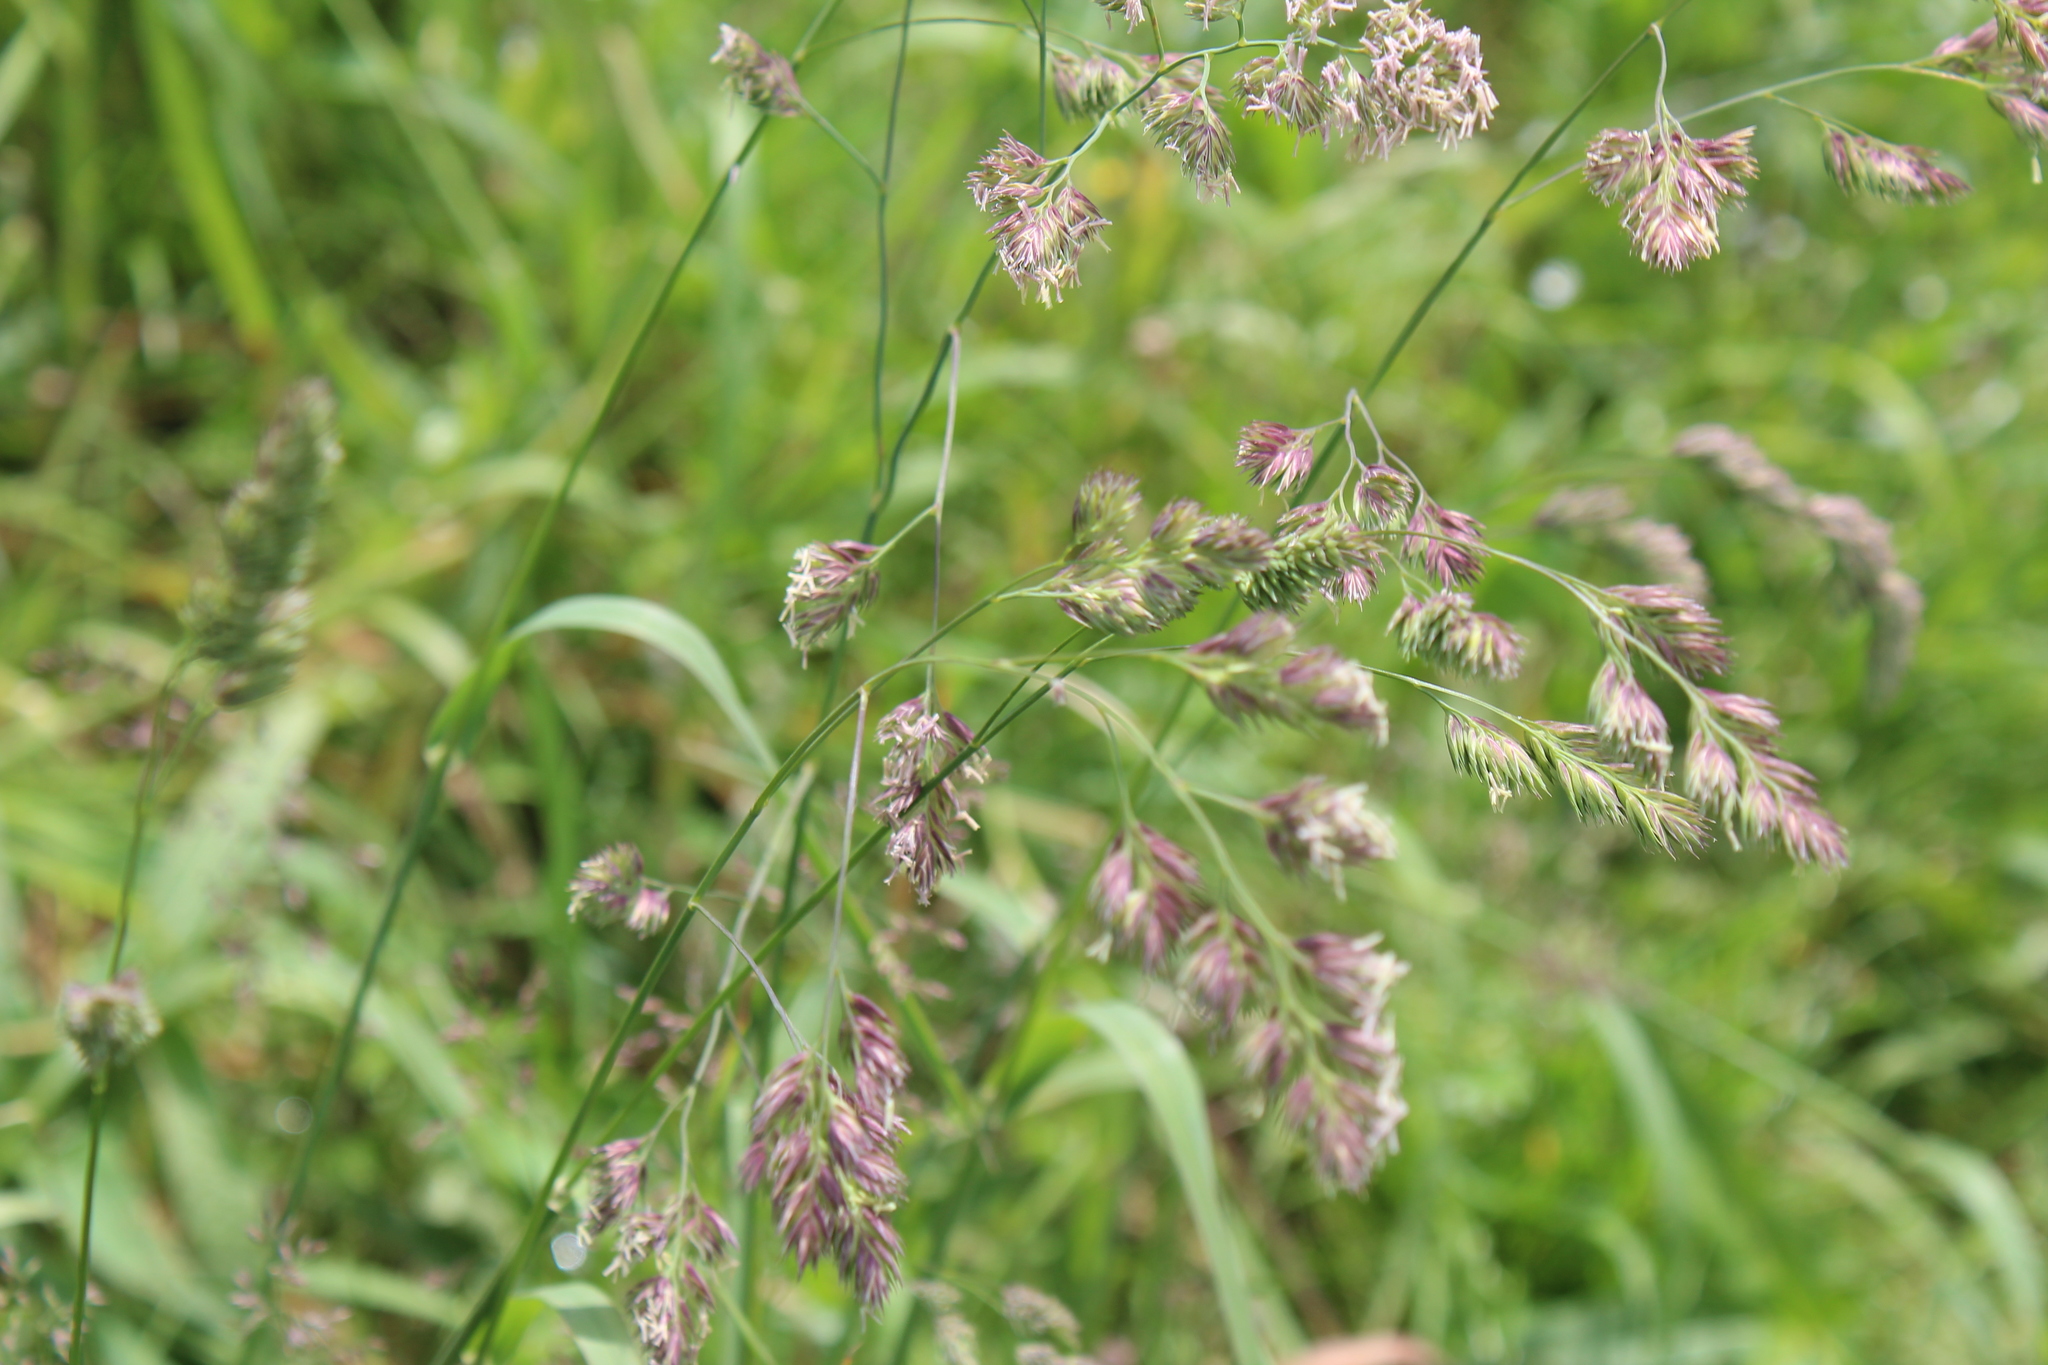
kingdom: Plantae
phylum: Tracheophyta
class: Liliopsida
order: Poales
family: Poaceae
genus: Dactylis
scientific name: Dactylis glomerata
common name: Orchardgrass
